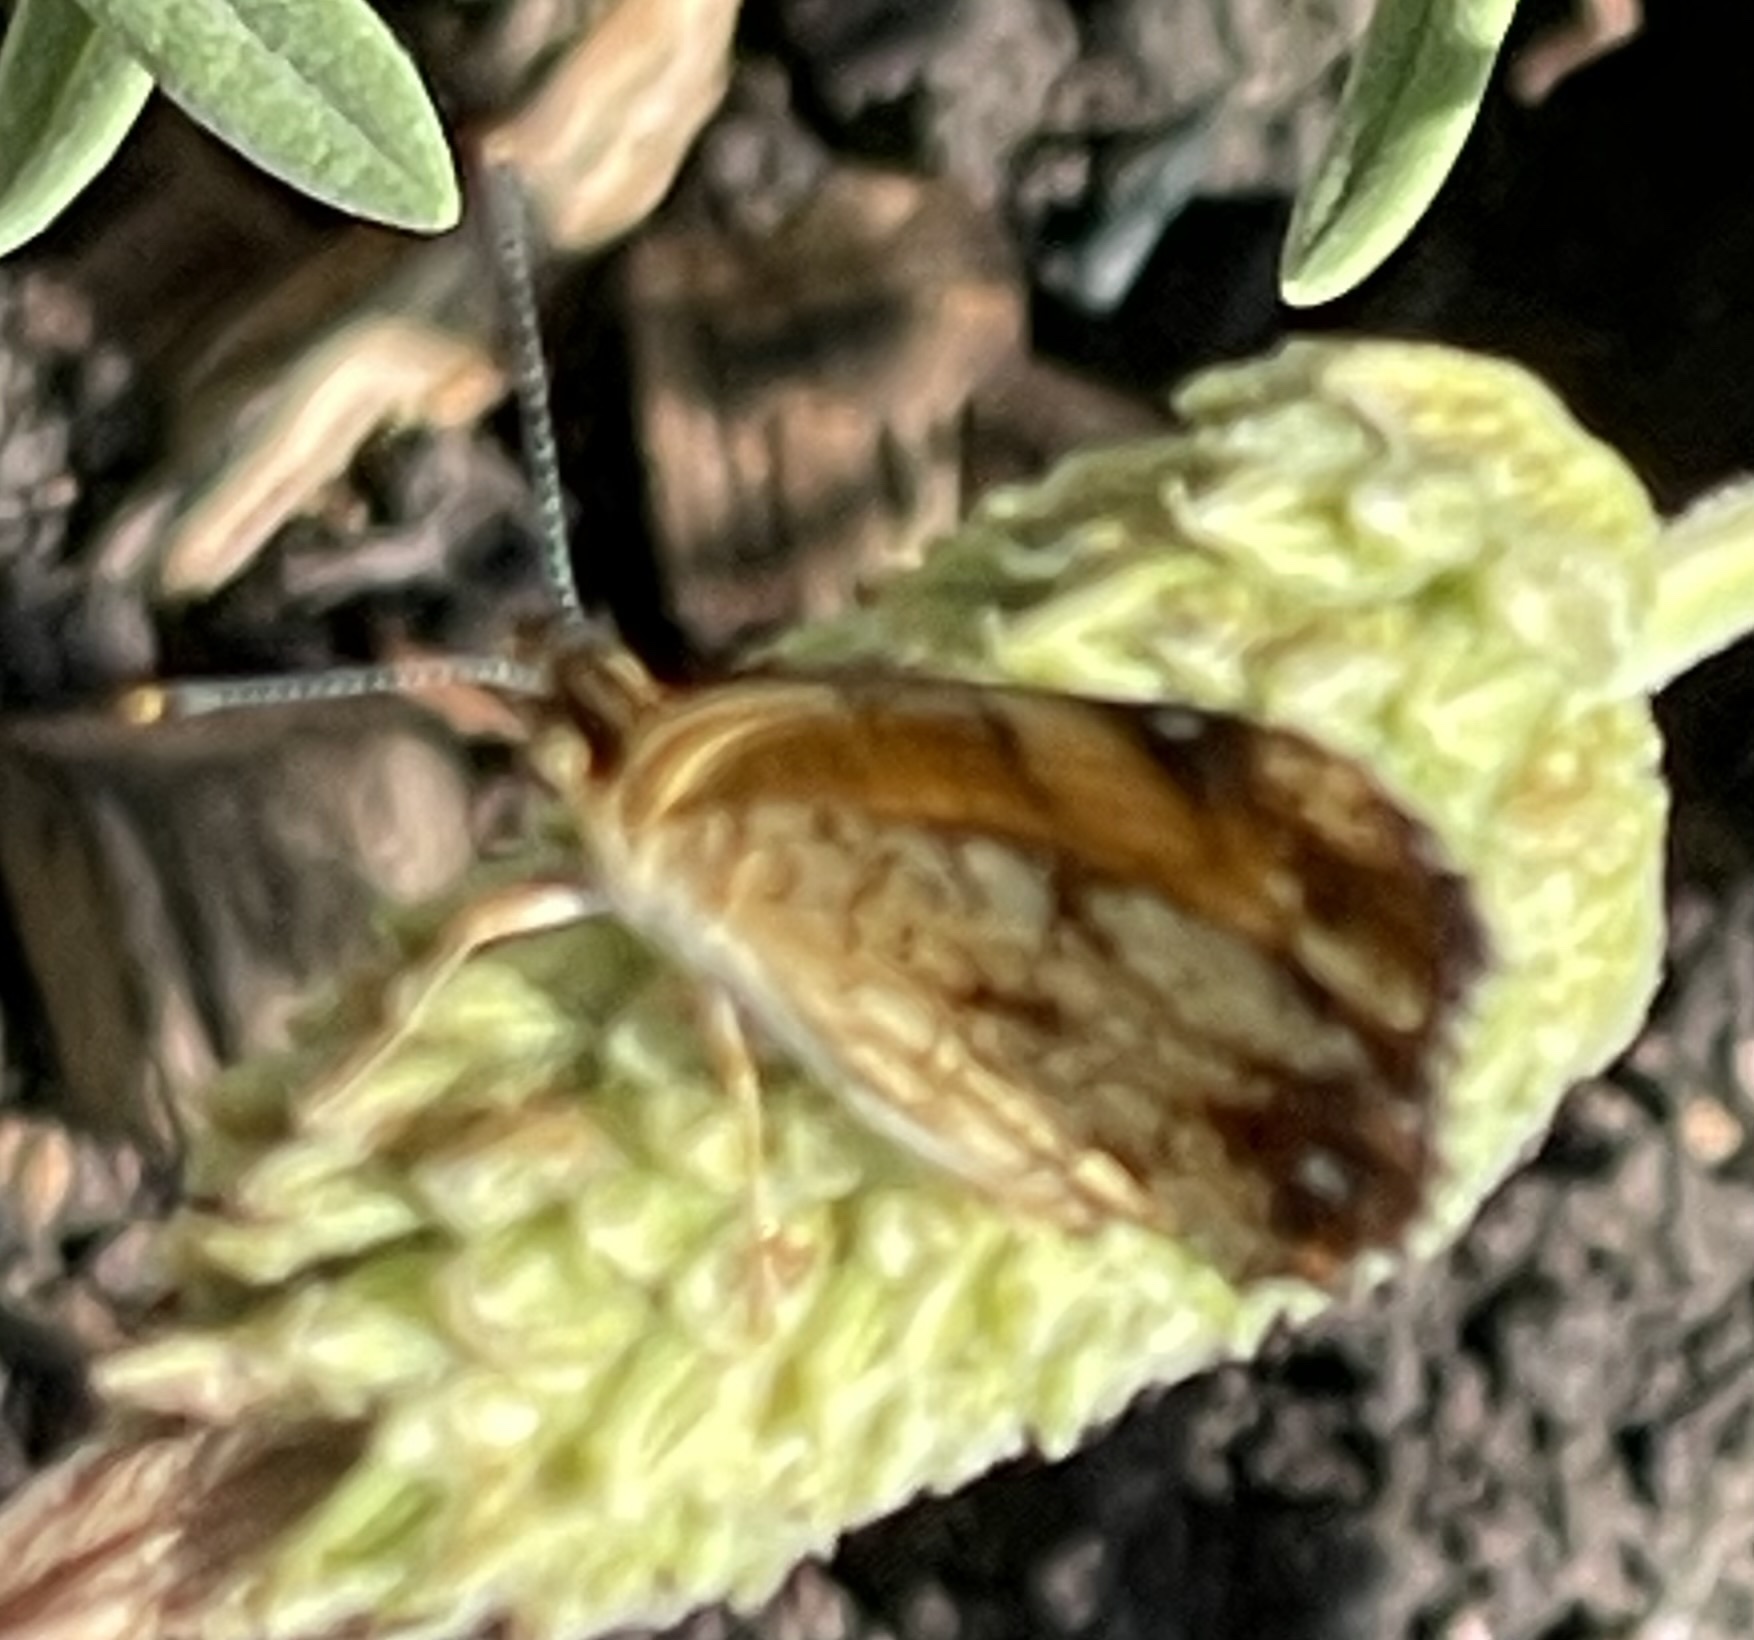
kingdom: Animalia
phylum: Arthropoda
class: Insecta
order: Lepidoptera
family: Nymphalidae
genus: Phyciodes
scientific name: Phyciodes tharos
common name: Pearl crescent
